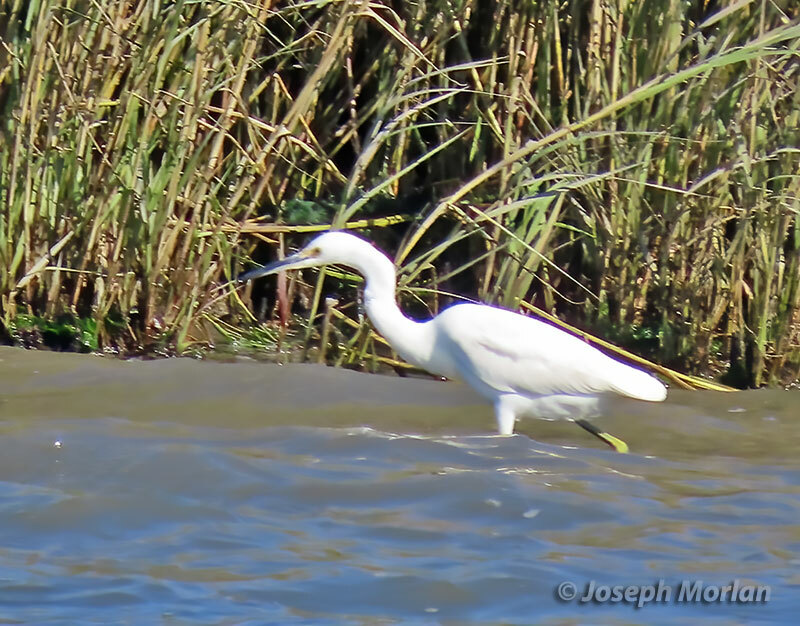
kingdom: Animalia
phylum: Chordata
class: Aves
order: Pelecaniformes
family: Ardeidae
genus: Egretta
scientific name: Egretta thula
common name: Snowy egret
